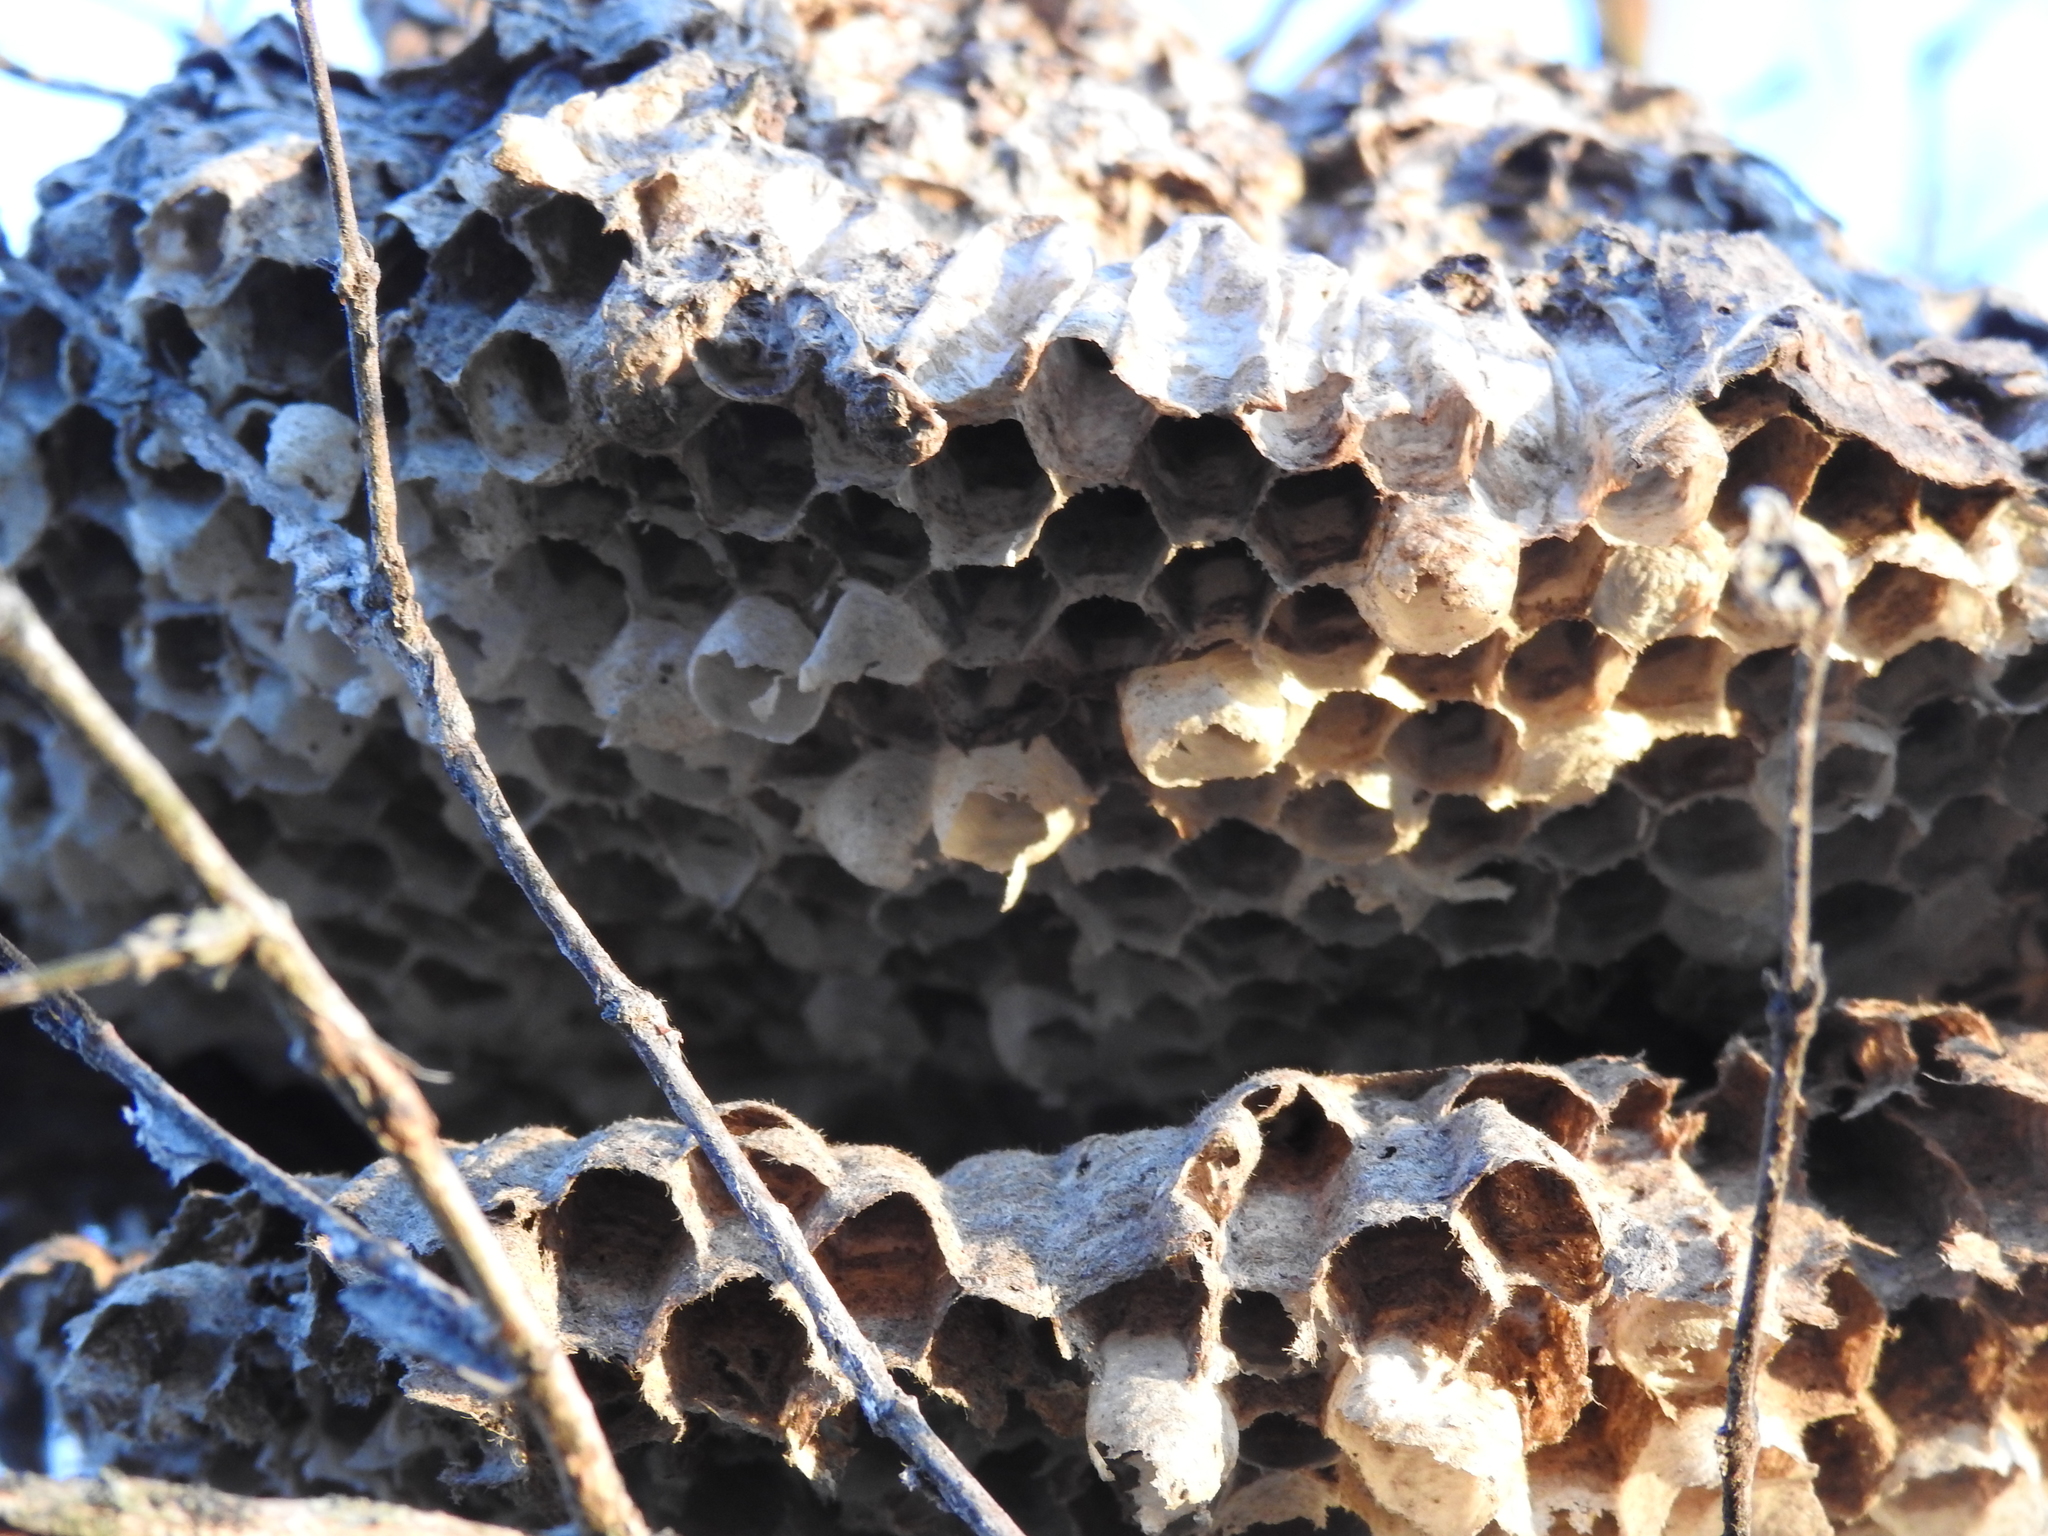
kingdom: Animalia
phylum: Arthropoda
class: Insecta
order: Hymenoptera
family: Vespidae
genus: Dolichovespula
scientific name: Dolichovespula
